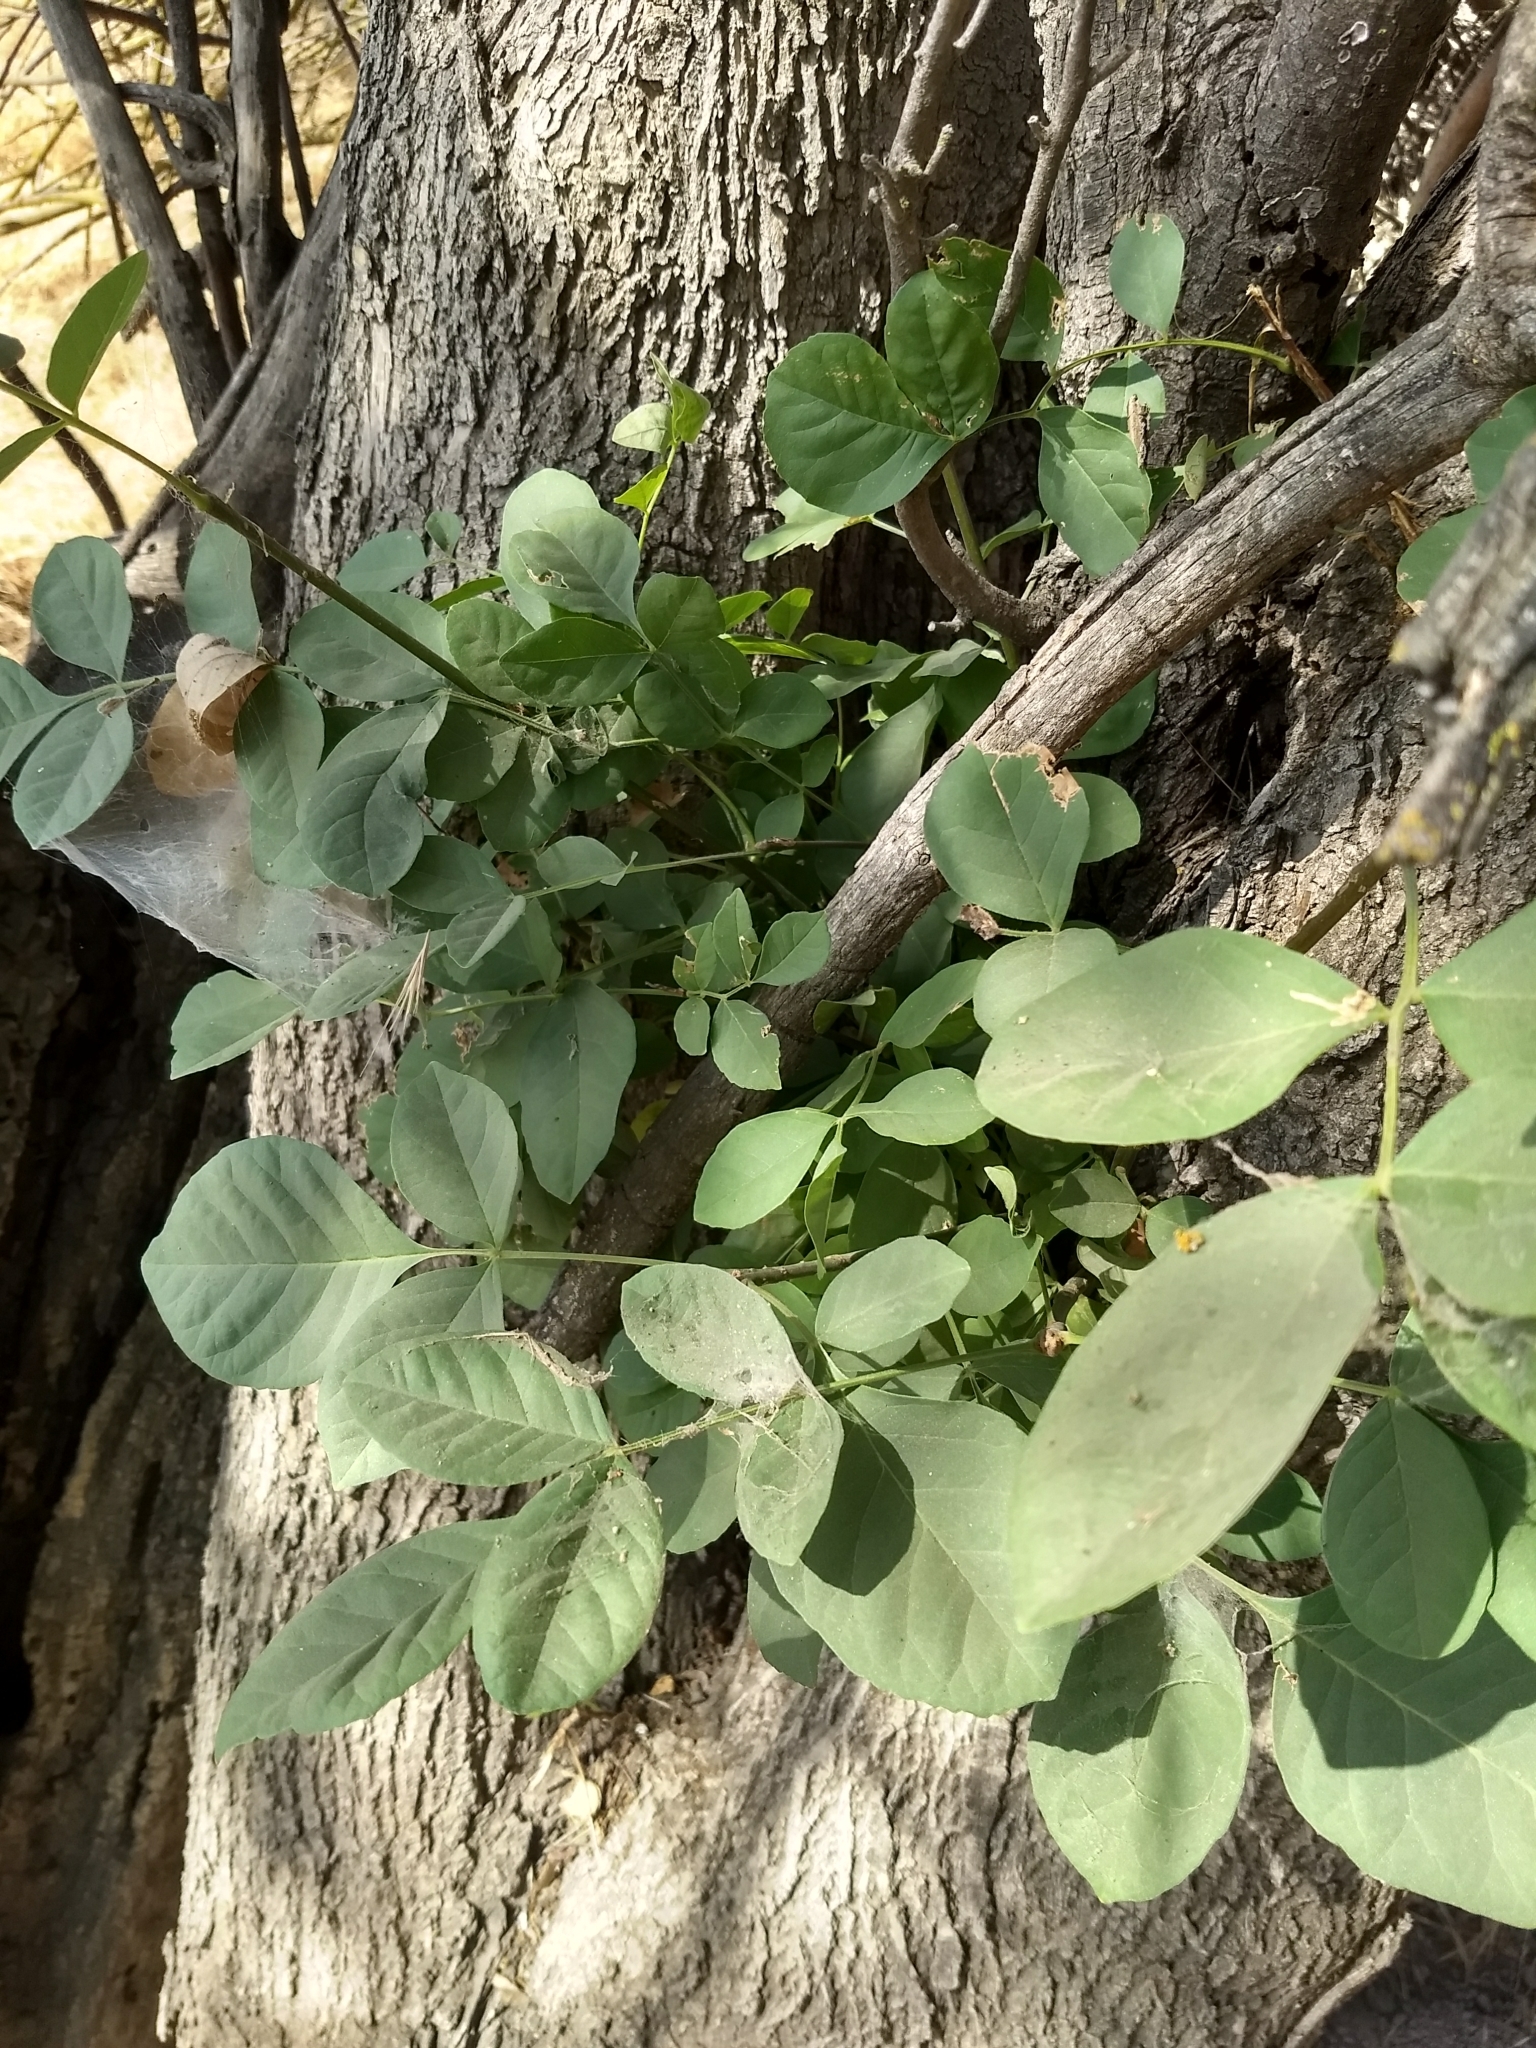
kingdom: Plantae
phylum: Tracheophyta
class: Magnoliopsida
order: Lamiales
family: Oleaceae
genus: Fraxinus
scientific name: Fraxinus latifolia
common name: Oregon ash
